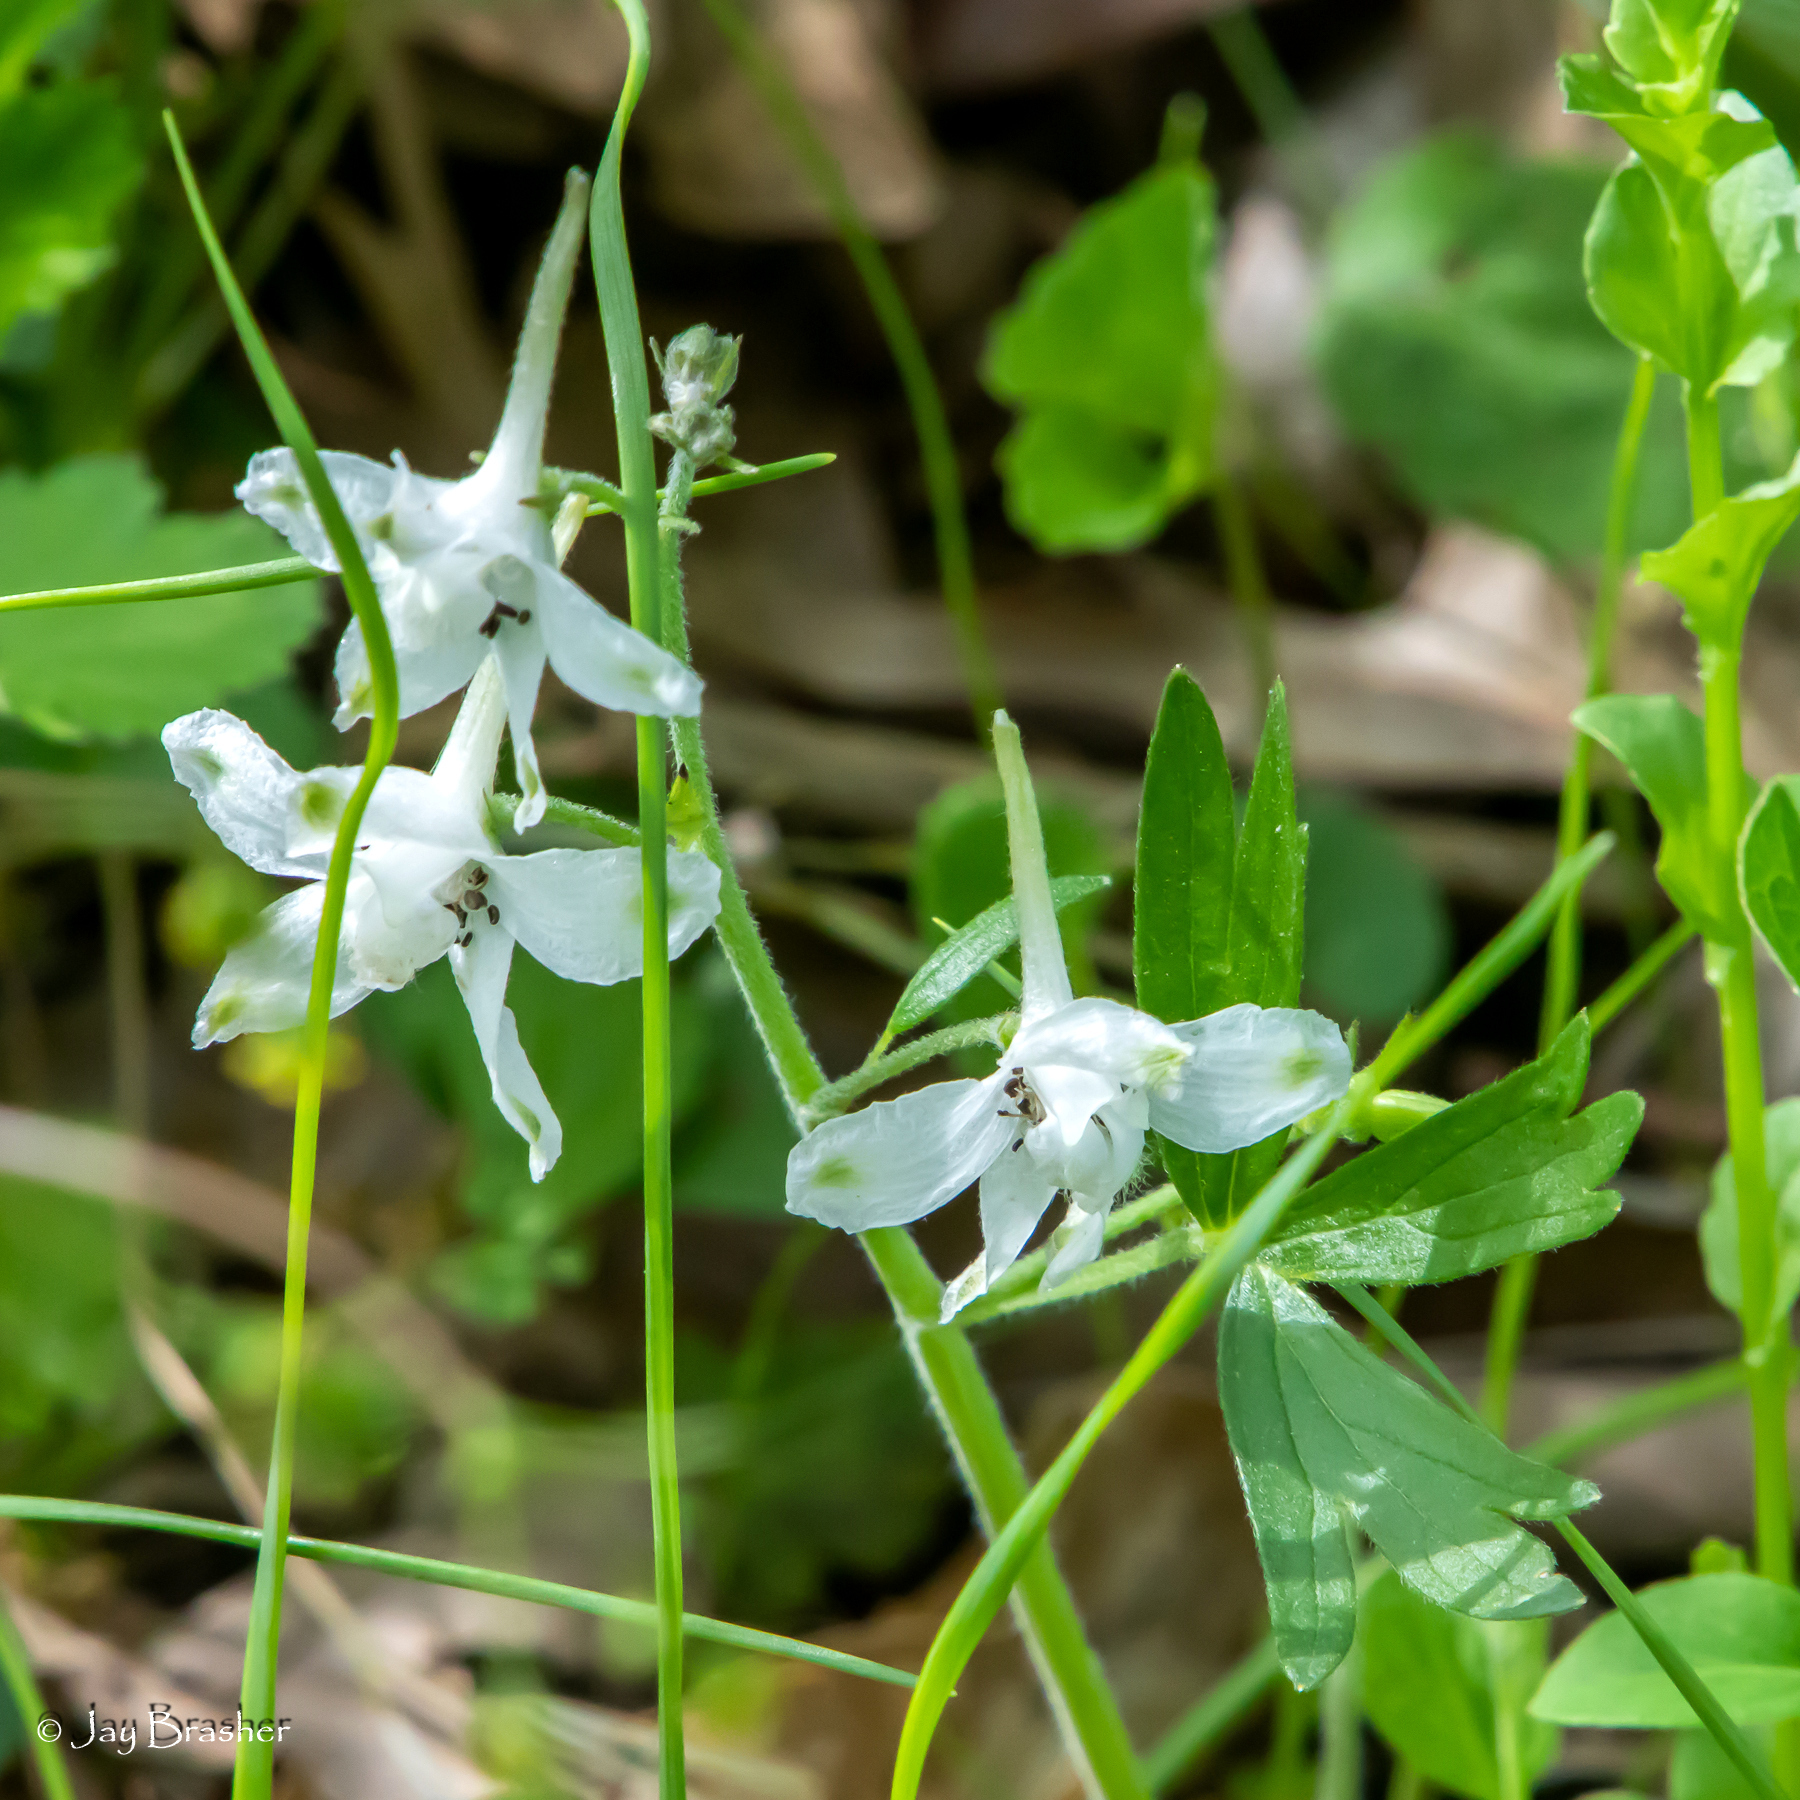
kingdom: Plantae
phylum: Tracheophyta
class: Magnoliopsida
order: Ranunculales
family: Ranunculaceae
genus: Delphinium
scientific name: Delphinium tricorne
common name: Dwarf larkspur
